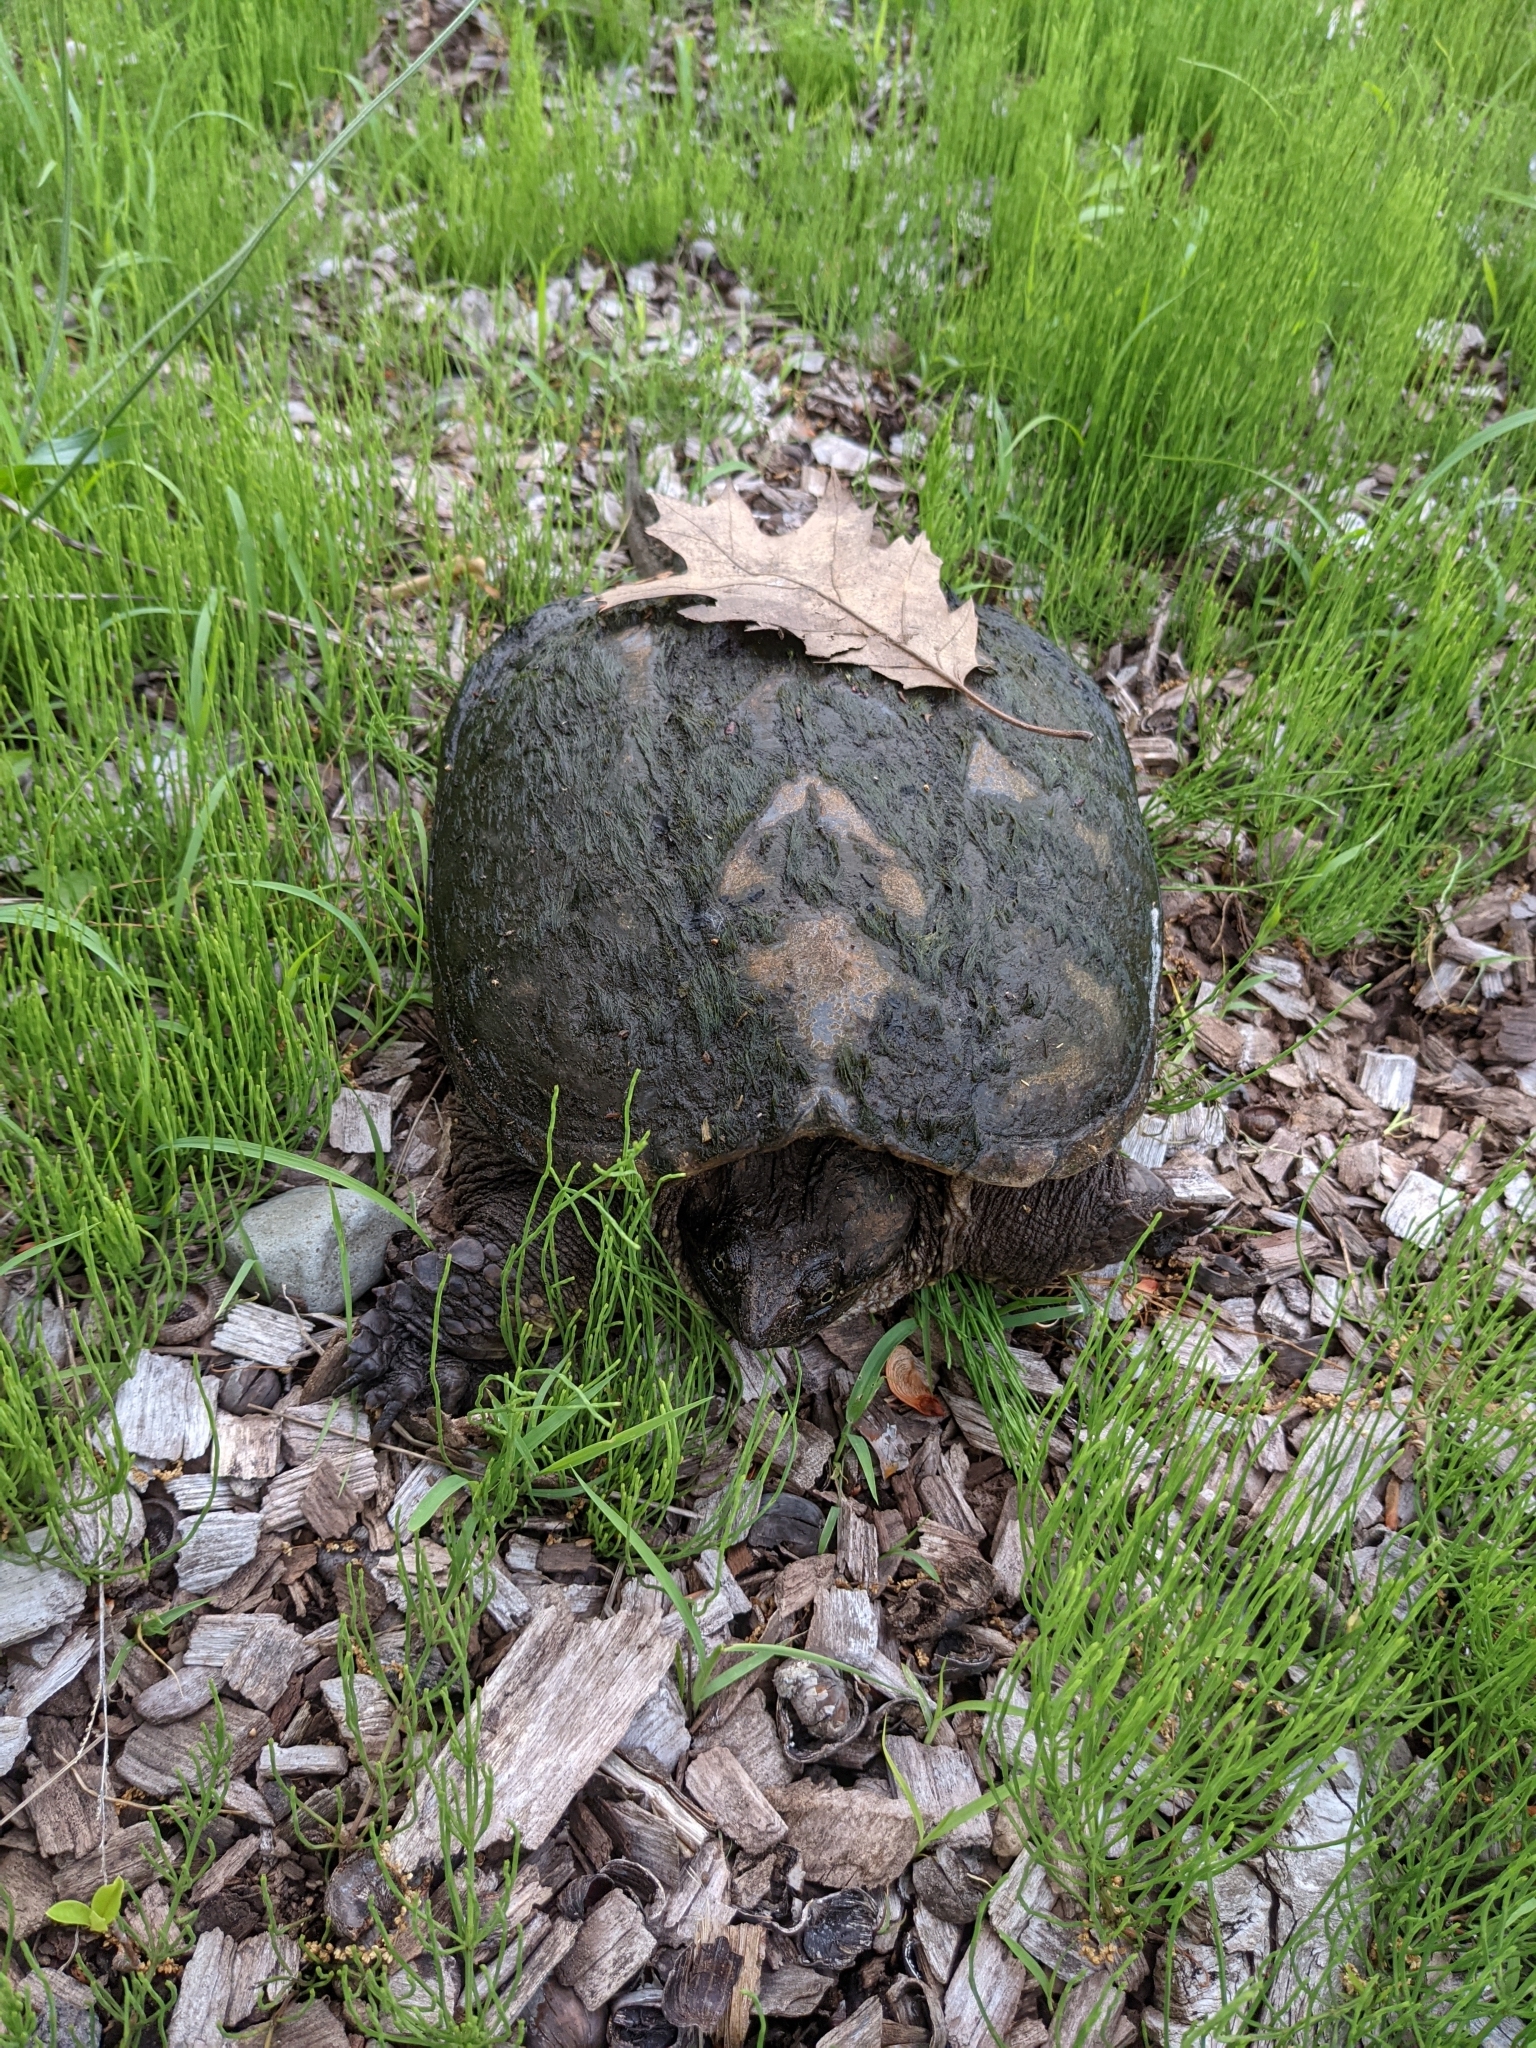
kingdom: Animalia
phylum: Chordata
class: Testudines
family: Chelydridae
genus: Chelydra
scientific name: Chelydra serpentina
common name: Common snapping turtle
